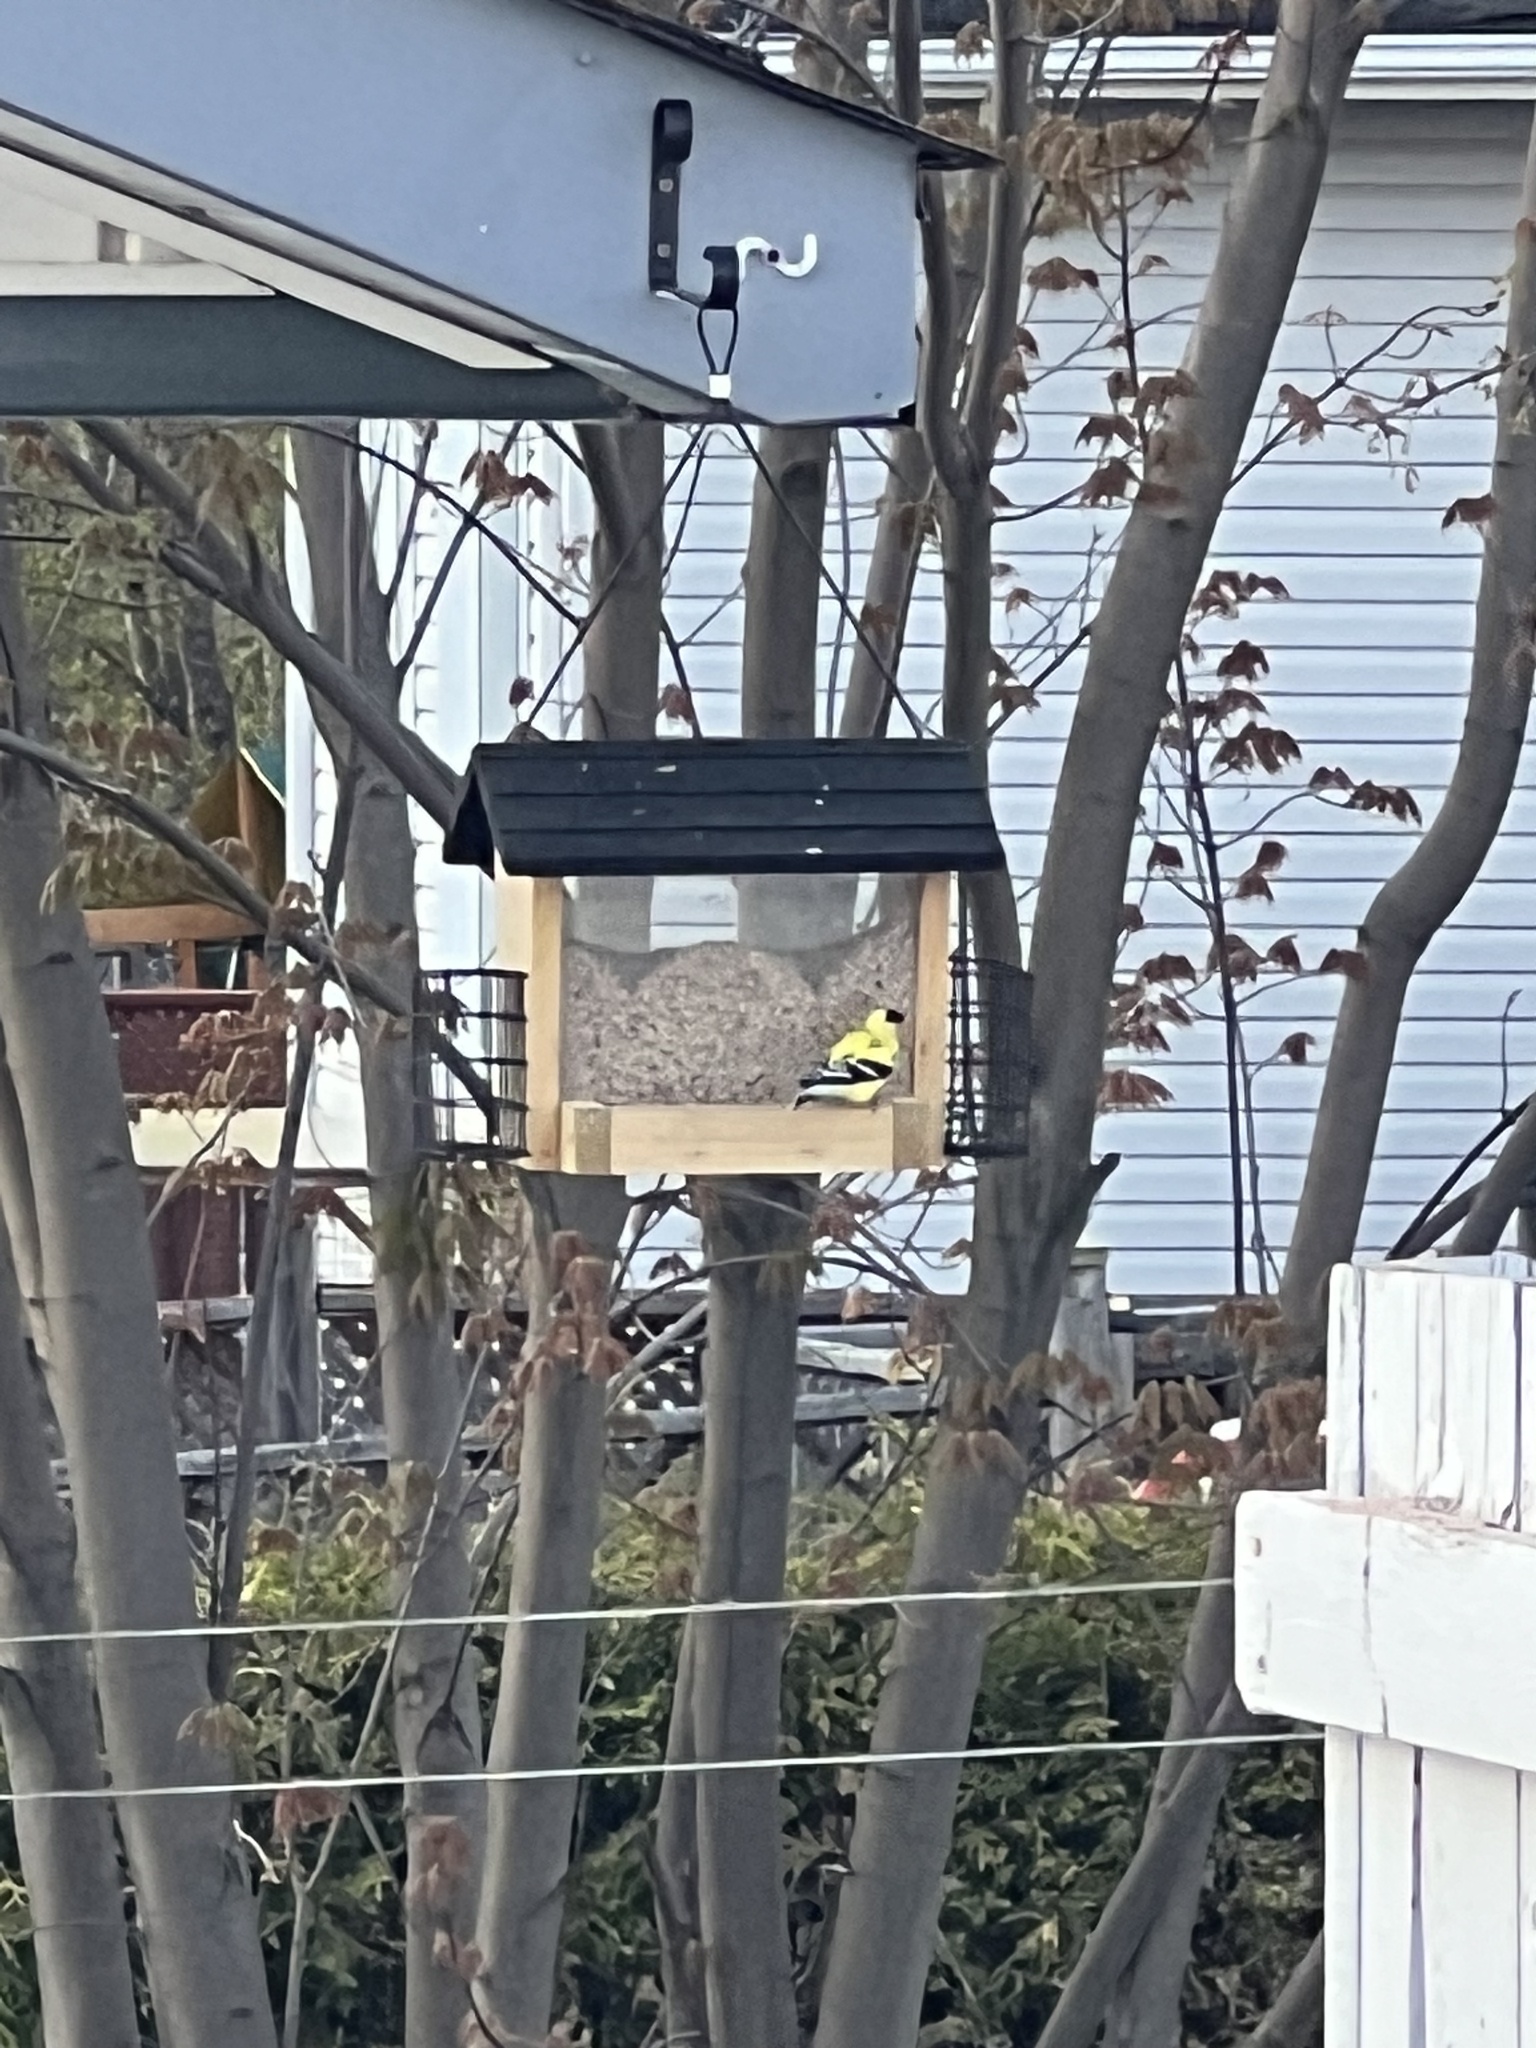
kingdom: Animalia
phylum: Chordata
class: Aves
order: Passeriformes
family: Fringillidae
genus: Spinus
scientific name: Spinus tristis
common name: American goldfinch
